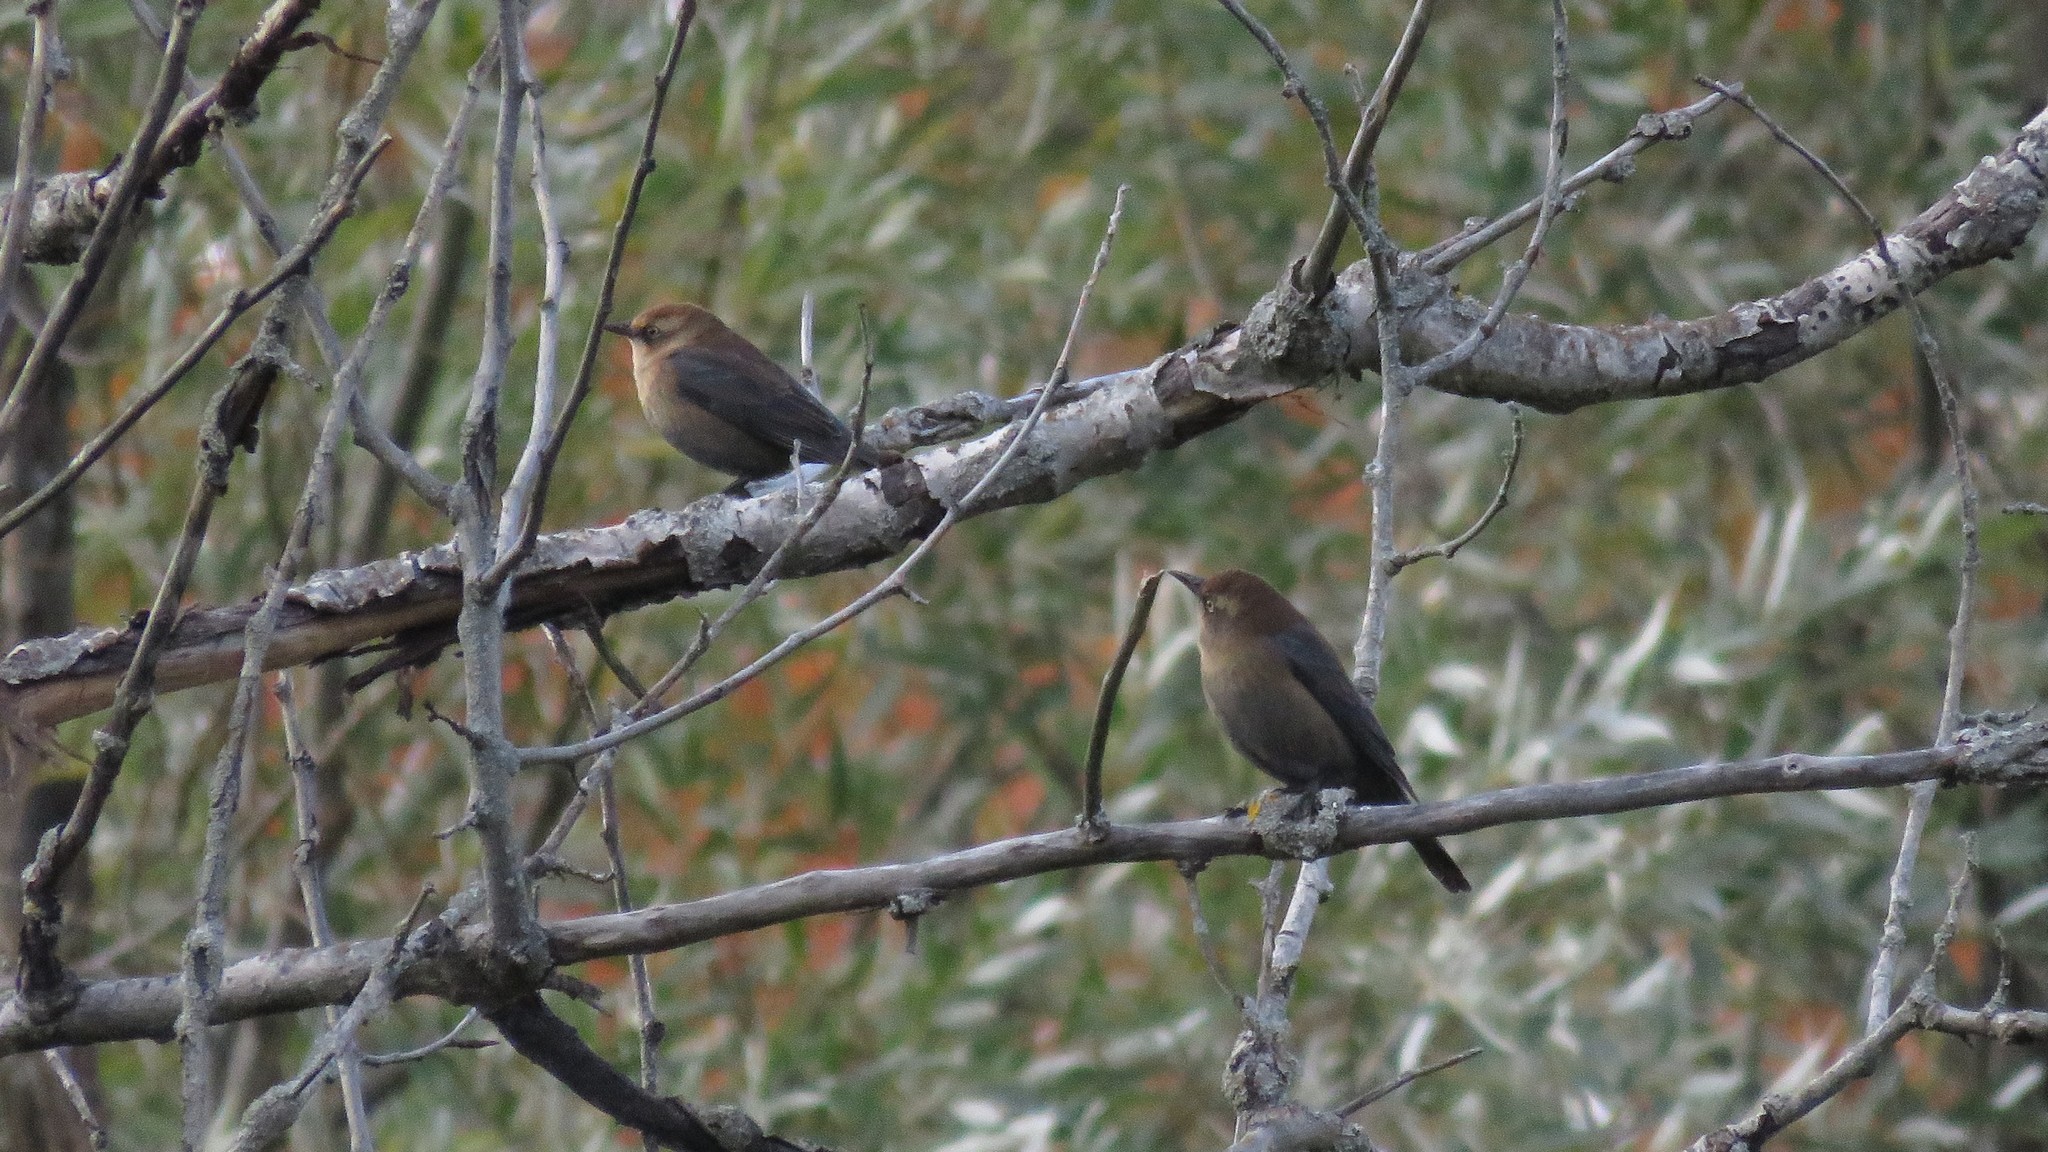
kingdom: Animalia
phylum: Chordata
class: Aves
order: Passeriformes
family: Icteridae
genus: Euphagus
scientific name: Euphagus carolinus
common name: Rusty blackbird
